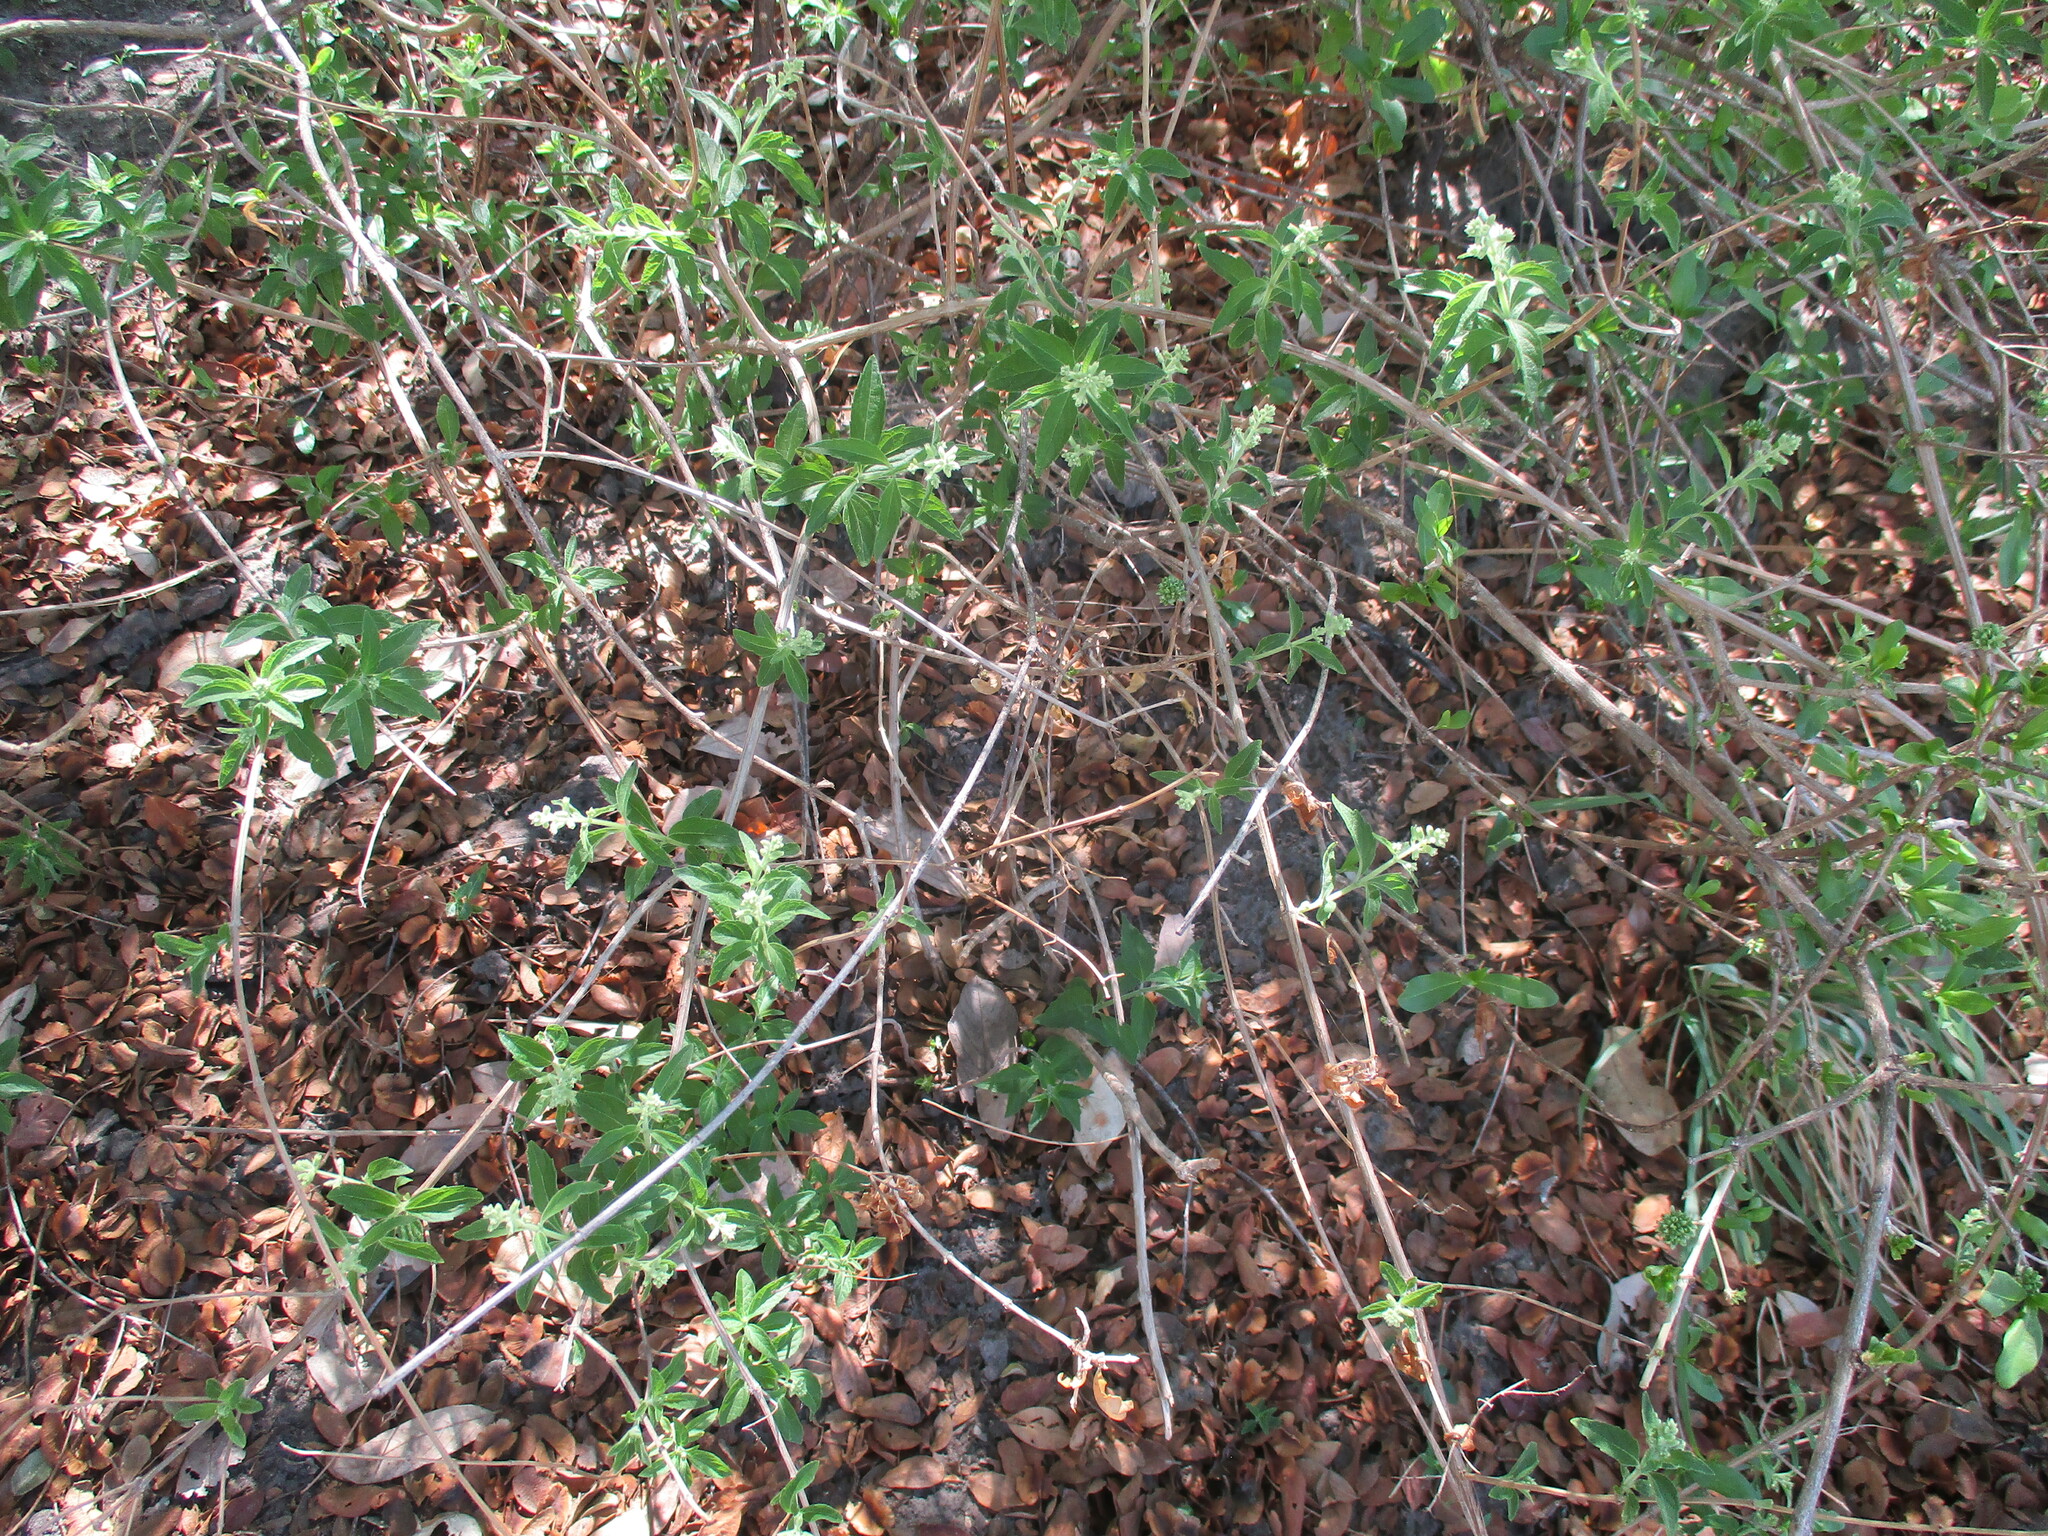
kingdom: Plantae
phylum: Tracheophyta
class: Magnoliopsida
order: Lamiales
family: Lamiaceae
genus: Hoslundia
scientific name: Hoslundia opposita
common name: Kamyuye
